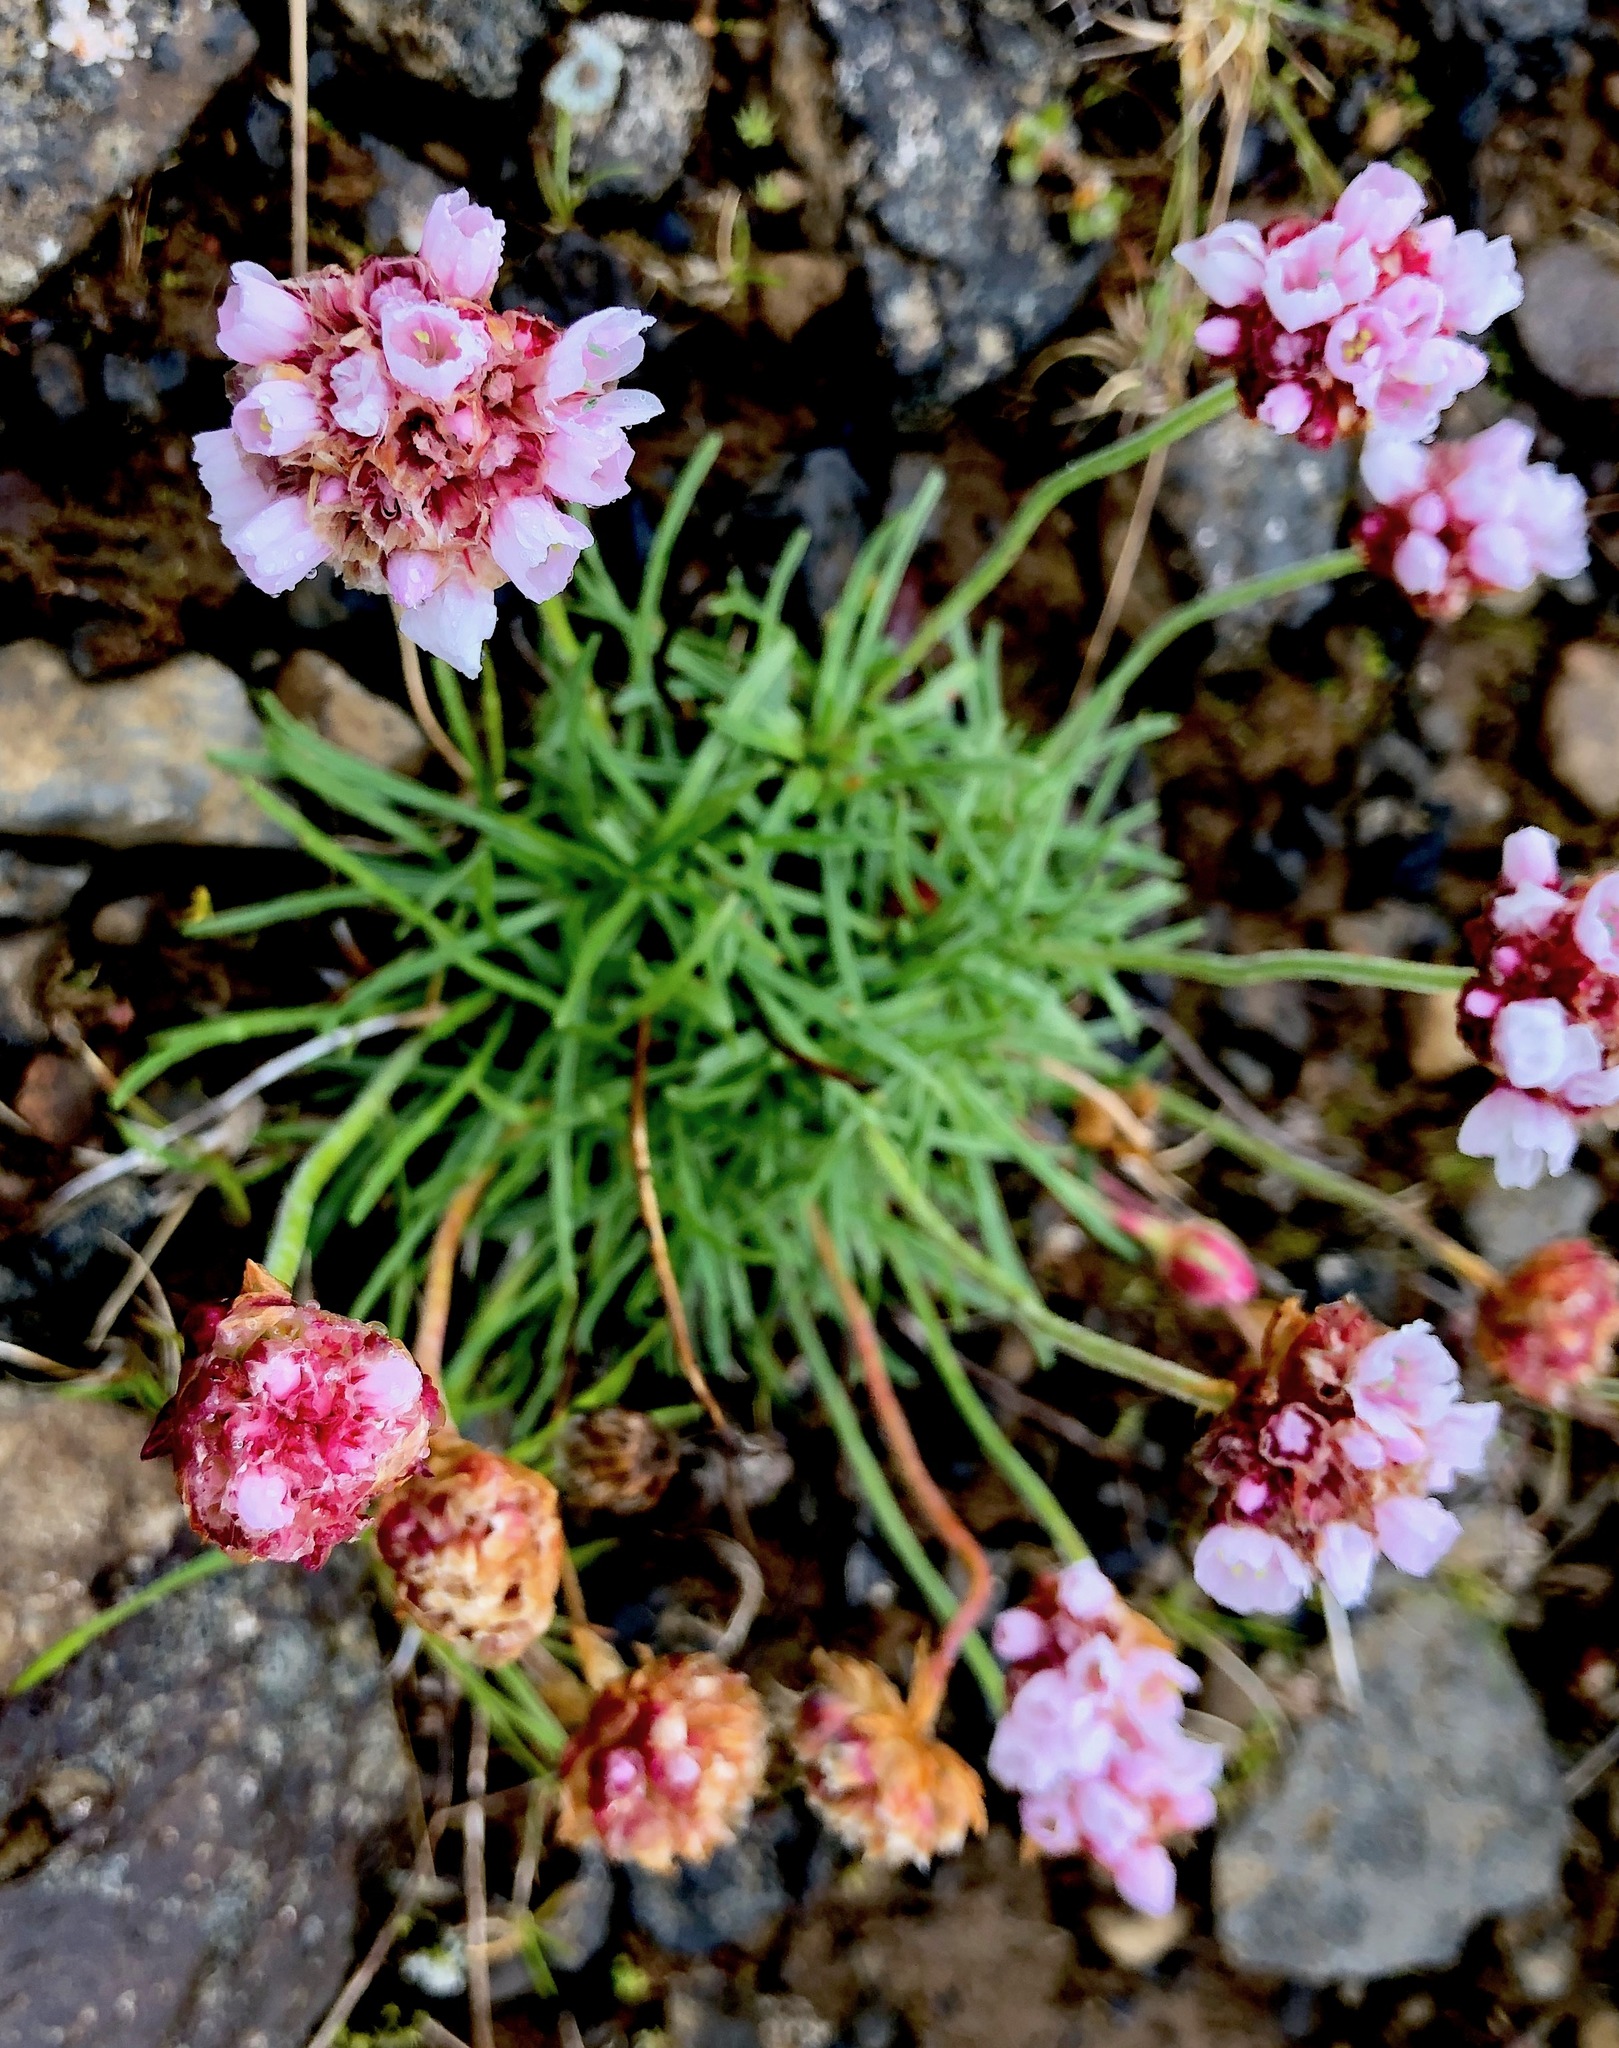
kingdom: Plantae
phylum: Tracheophyta
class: Magnoliopsida
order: Caryophyllales
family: Plumbaginaceae
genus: Armeria
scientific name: Armeria maritima
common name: Thrift
